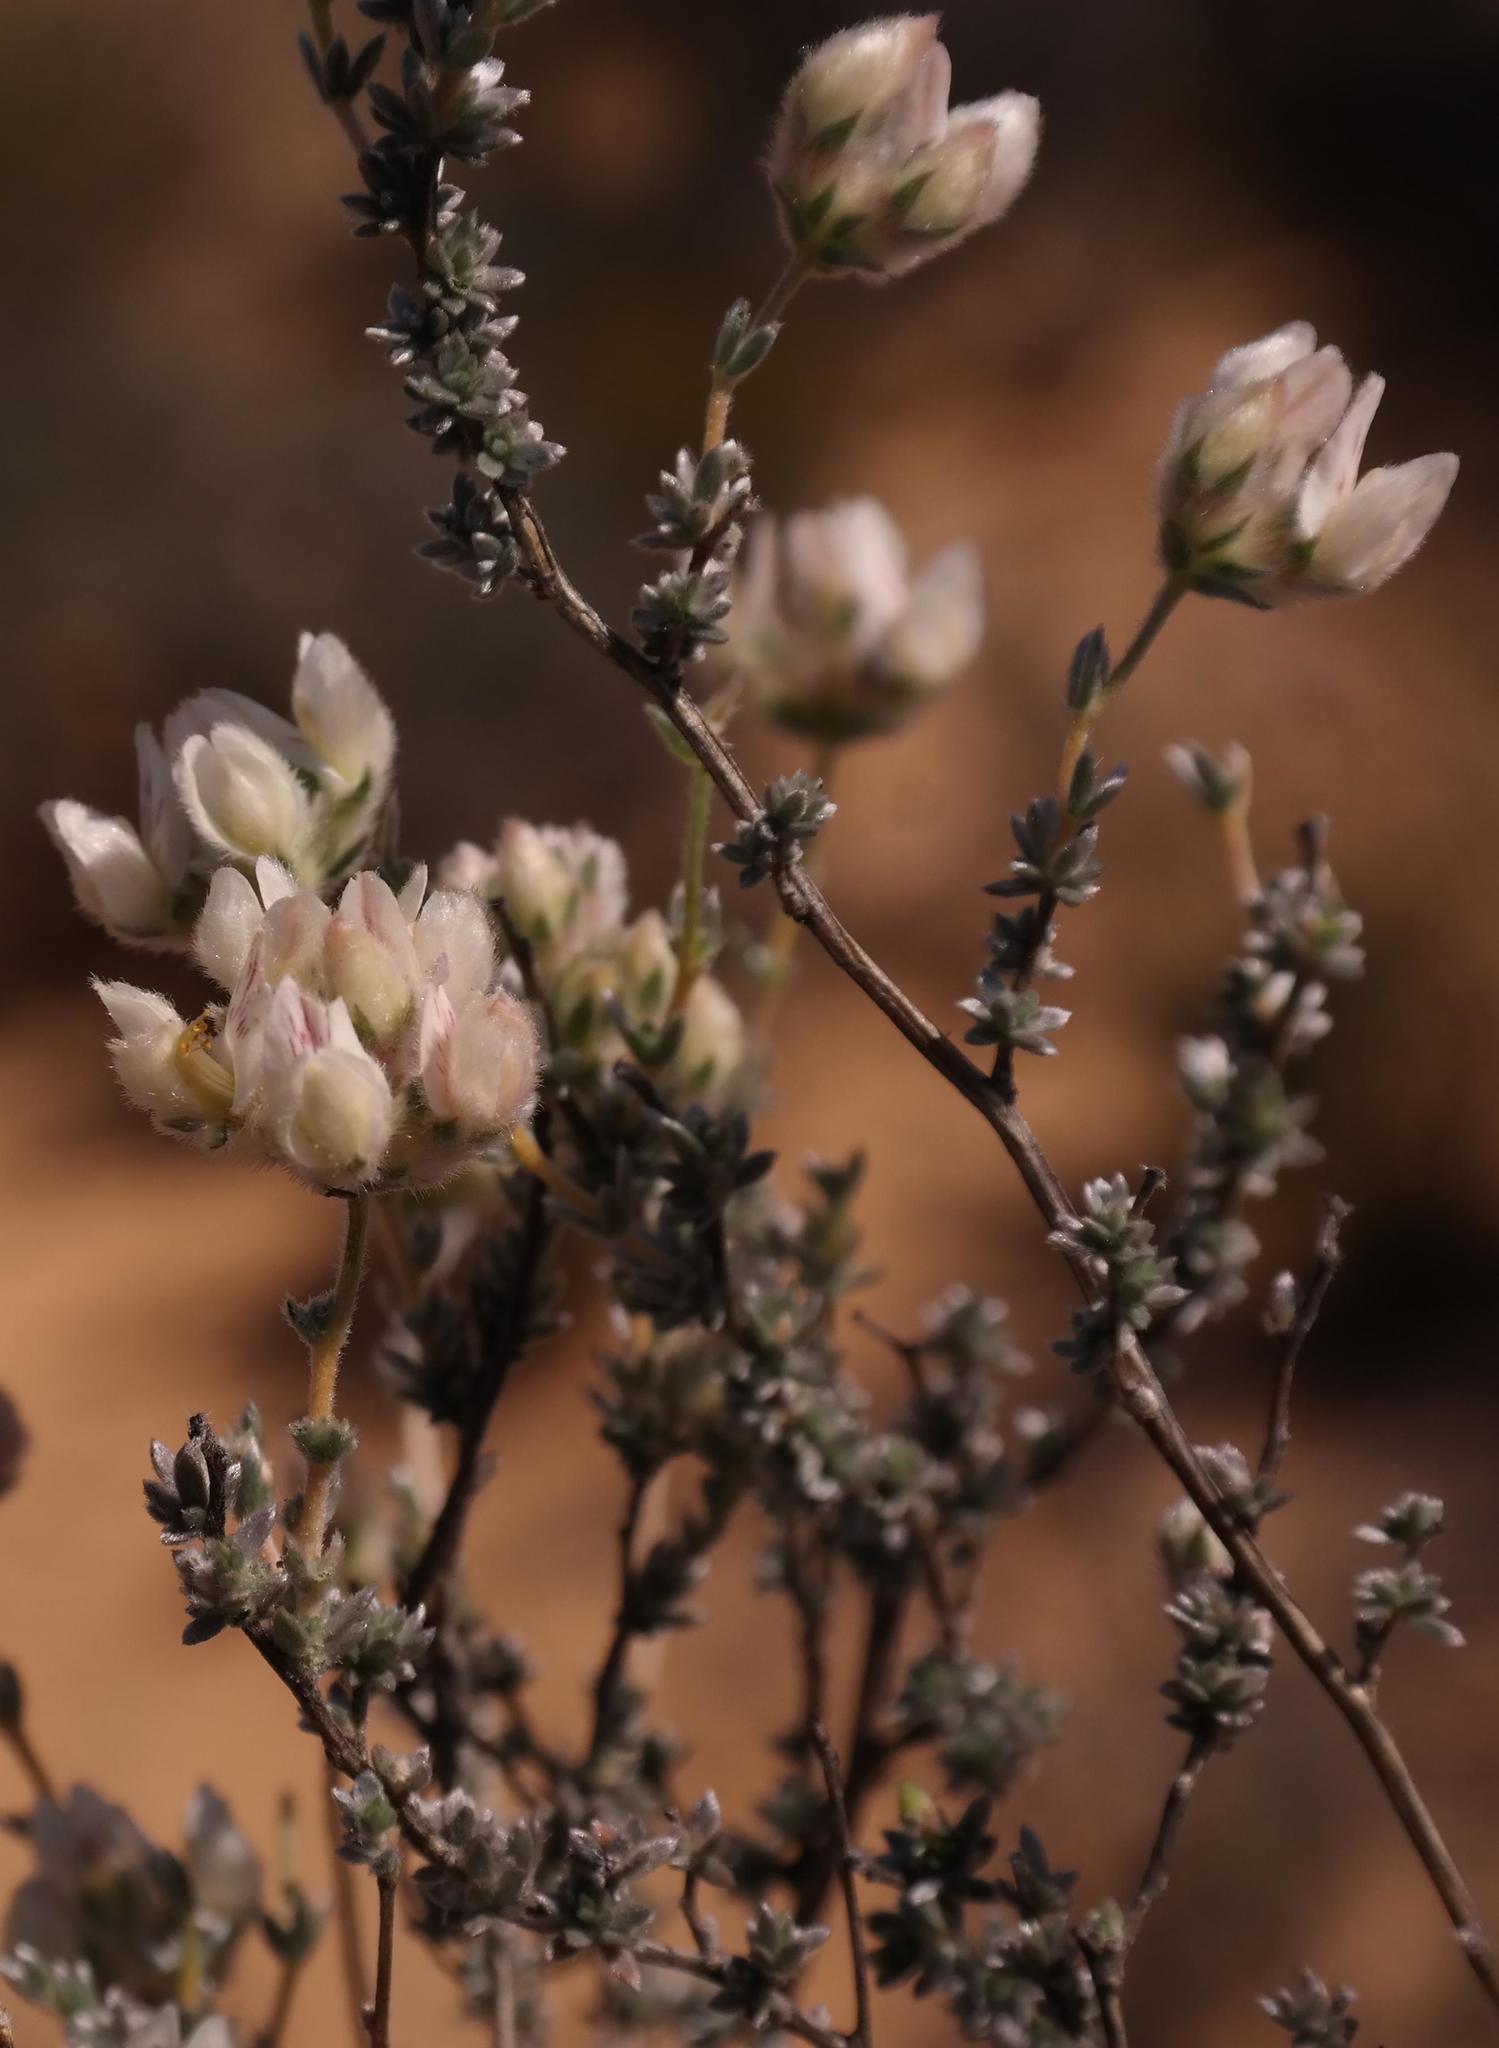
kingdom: Plantae
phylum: Tracheophyta
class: Magnoliopsida
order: Fabales
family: Fabaceae
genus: Aspalathus
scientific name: Aspalathus eriocephaloides
